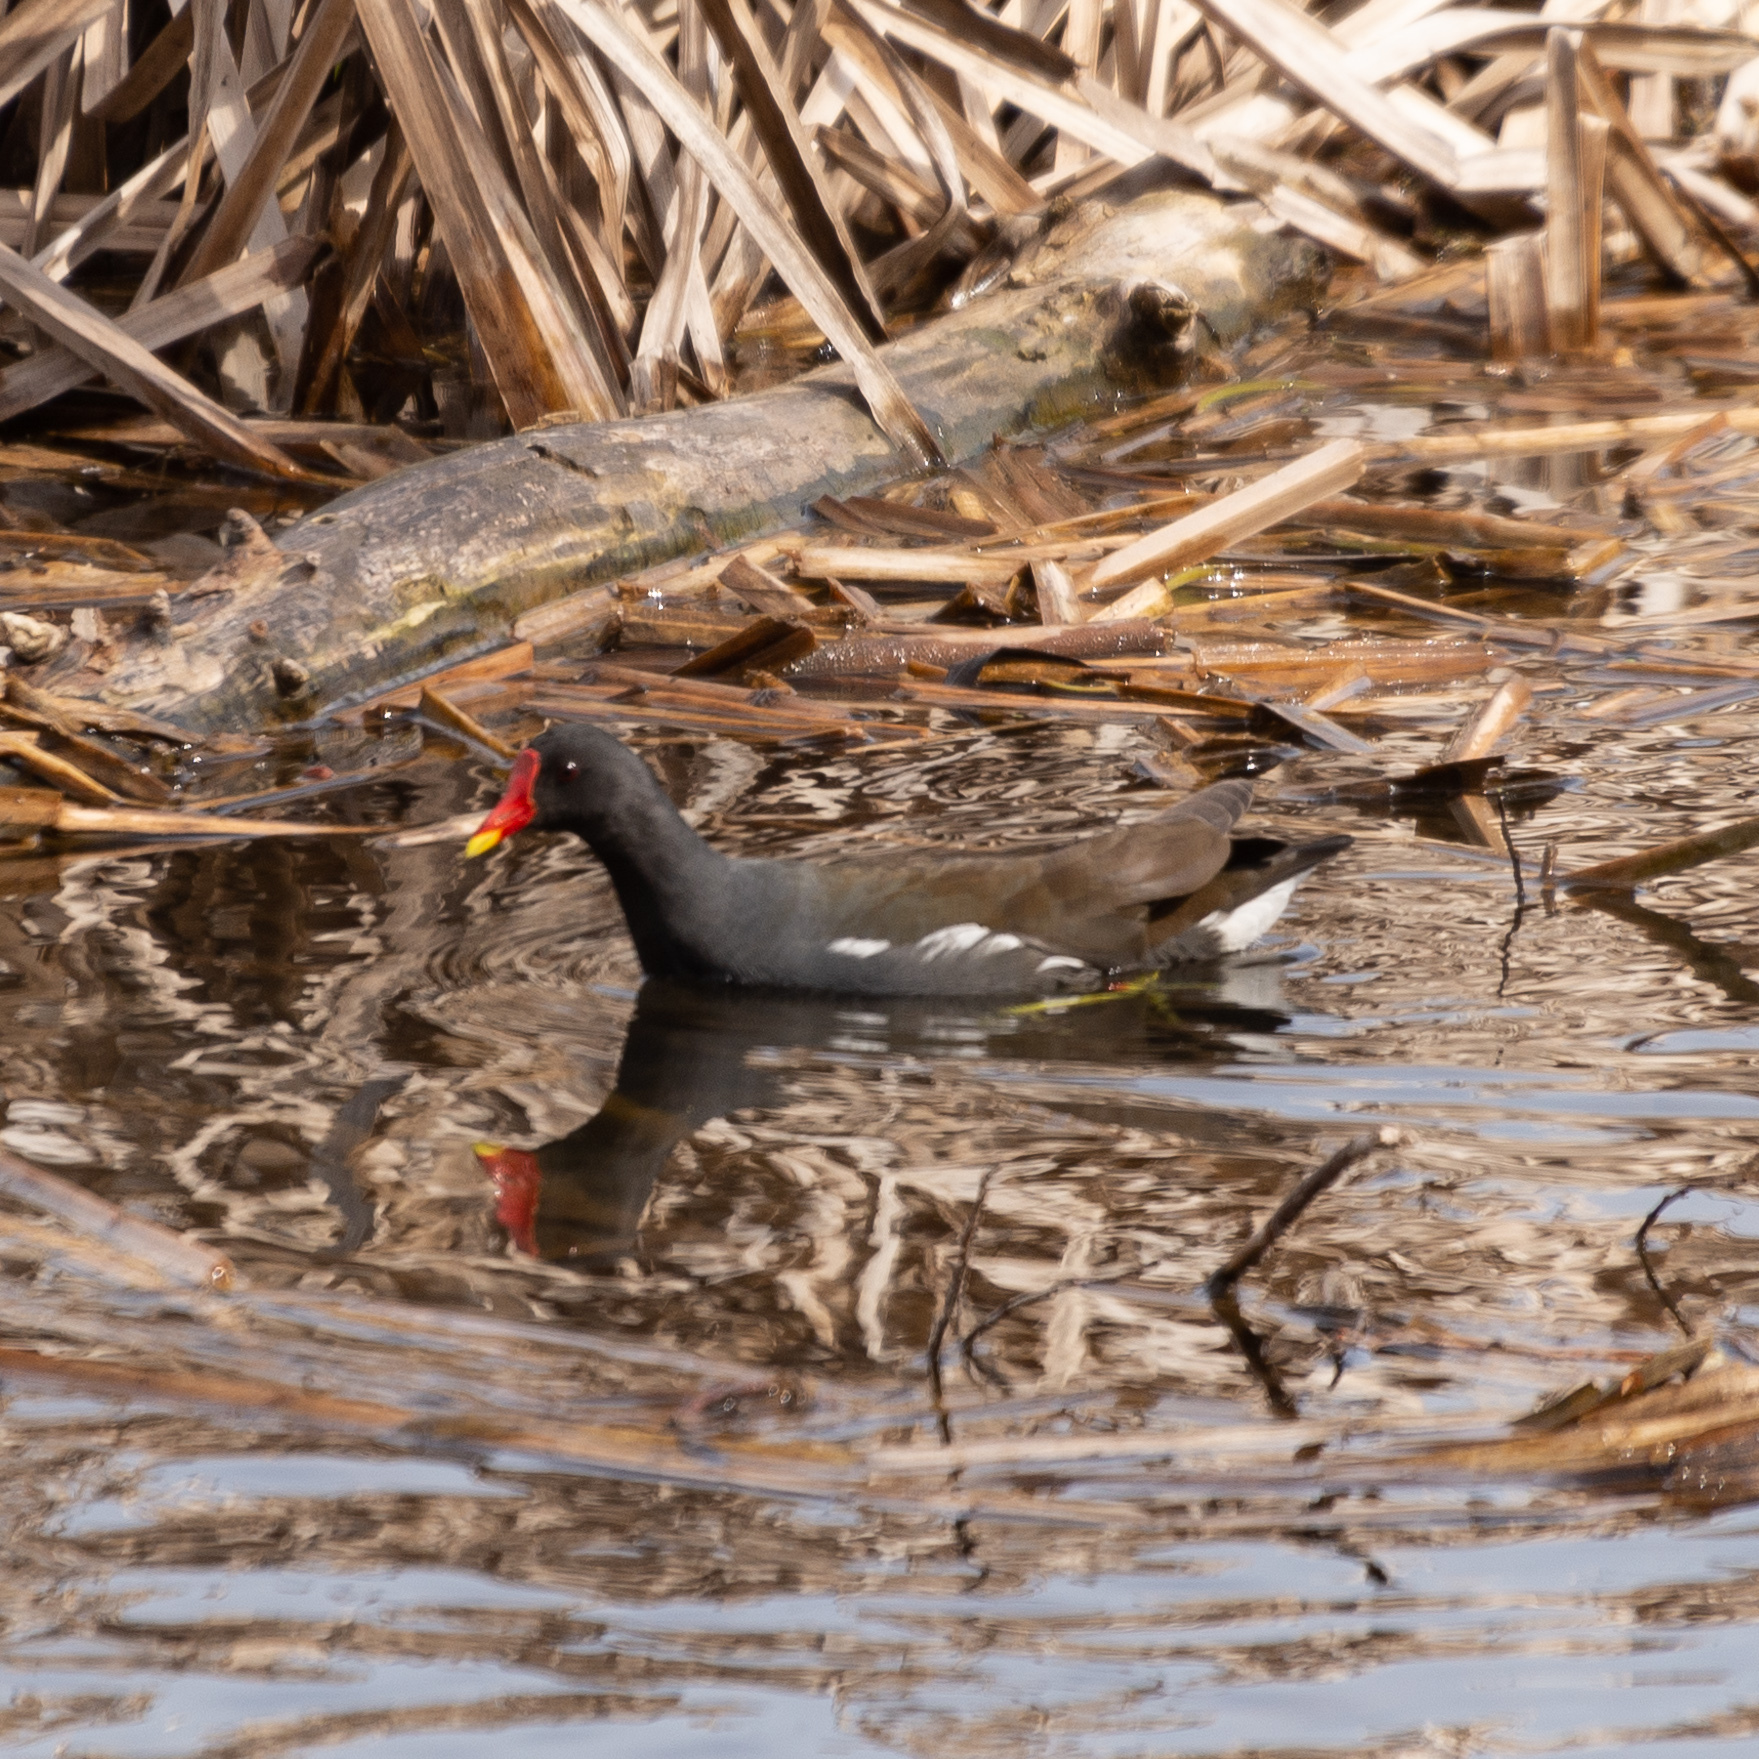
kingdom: Animalia
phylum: Chordata
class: Aves
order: Gruiformes
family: Rallidae
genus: Gallinula
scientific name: Gallinula chloropus
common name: Common moorhen
